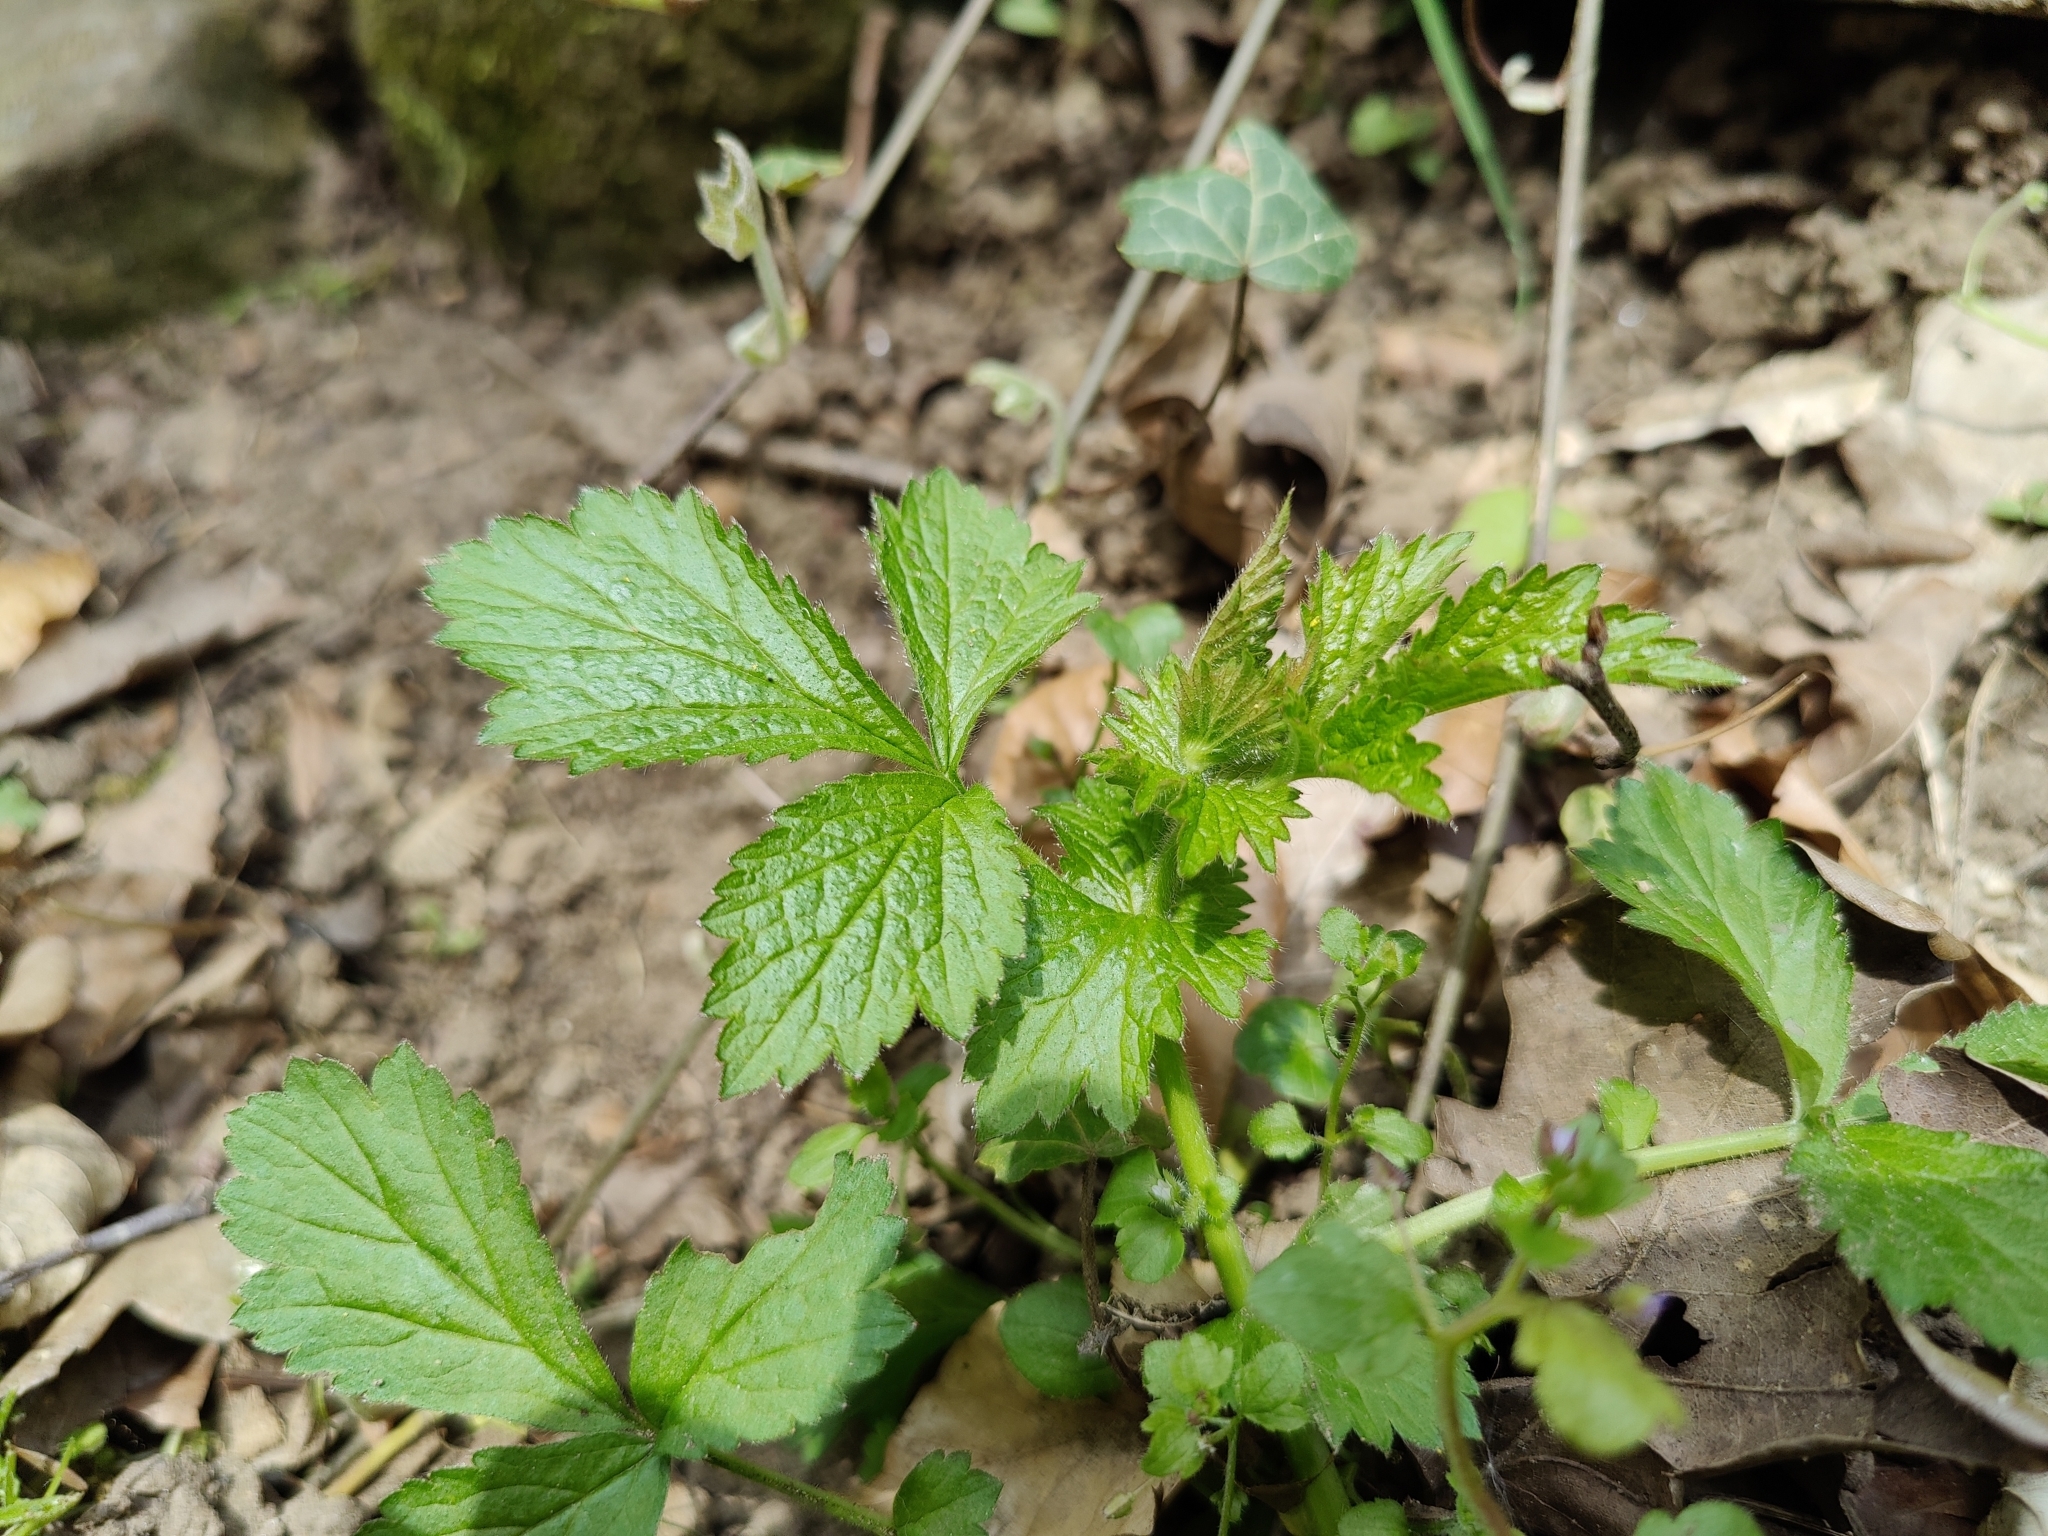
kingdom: Plantae
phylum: Tracheophyta
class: Magnoliopsida
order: Rosales
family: Rosaceae
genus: Geum
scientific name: Geum urbanum
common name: Wood avens
